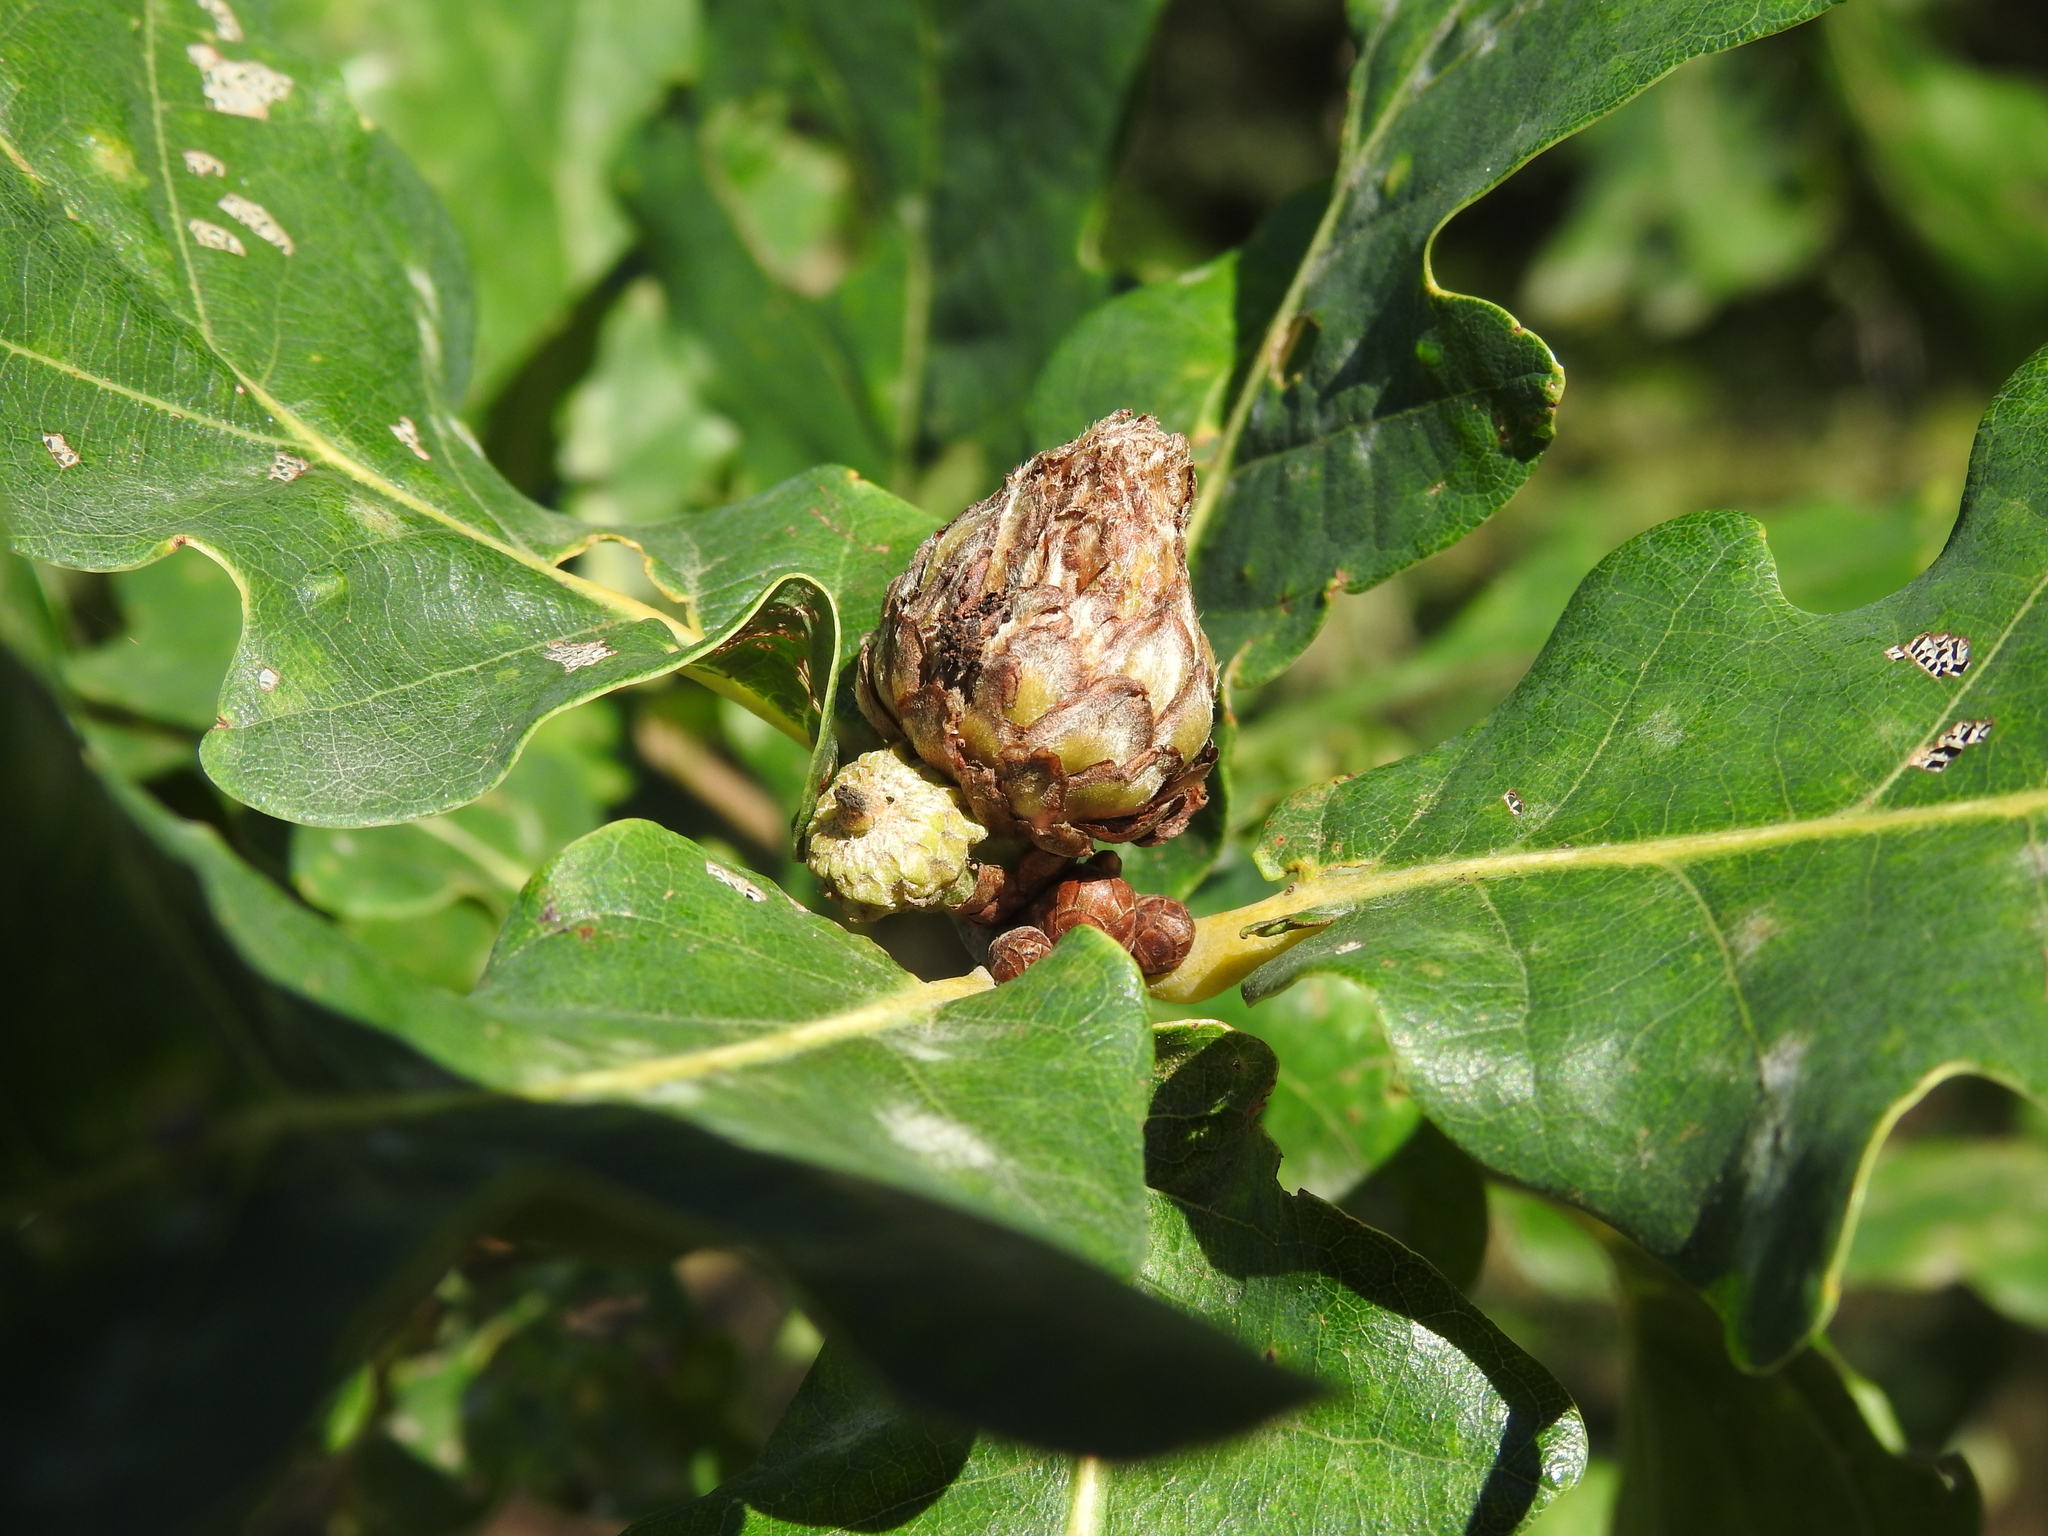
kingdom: Animalia
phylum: Arthropoda
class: Insecta
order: Hymenoptera
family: Cynipidae
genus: Andricus
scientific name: Andricus foecundatrix
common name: Artichoke gall
